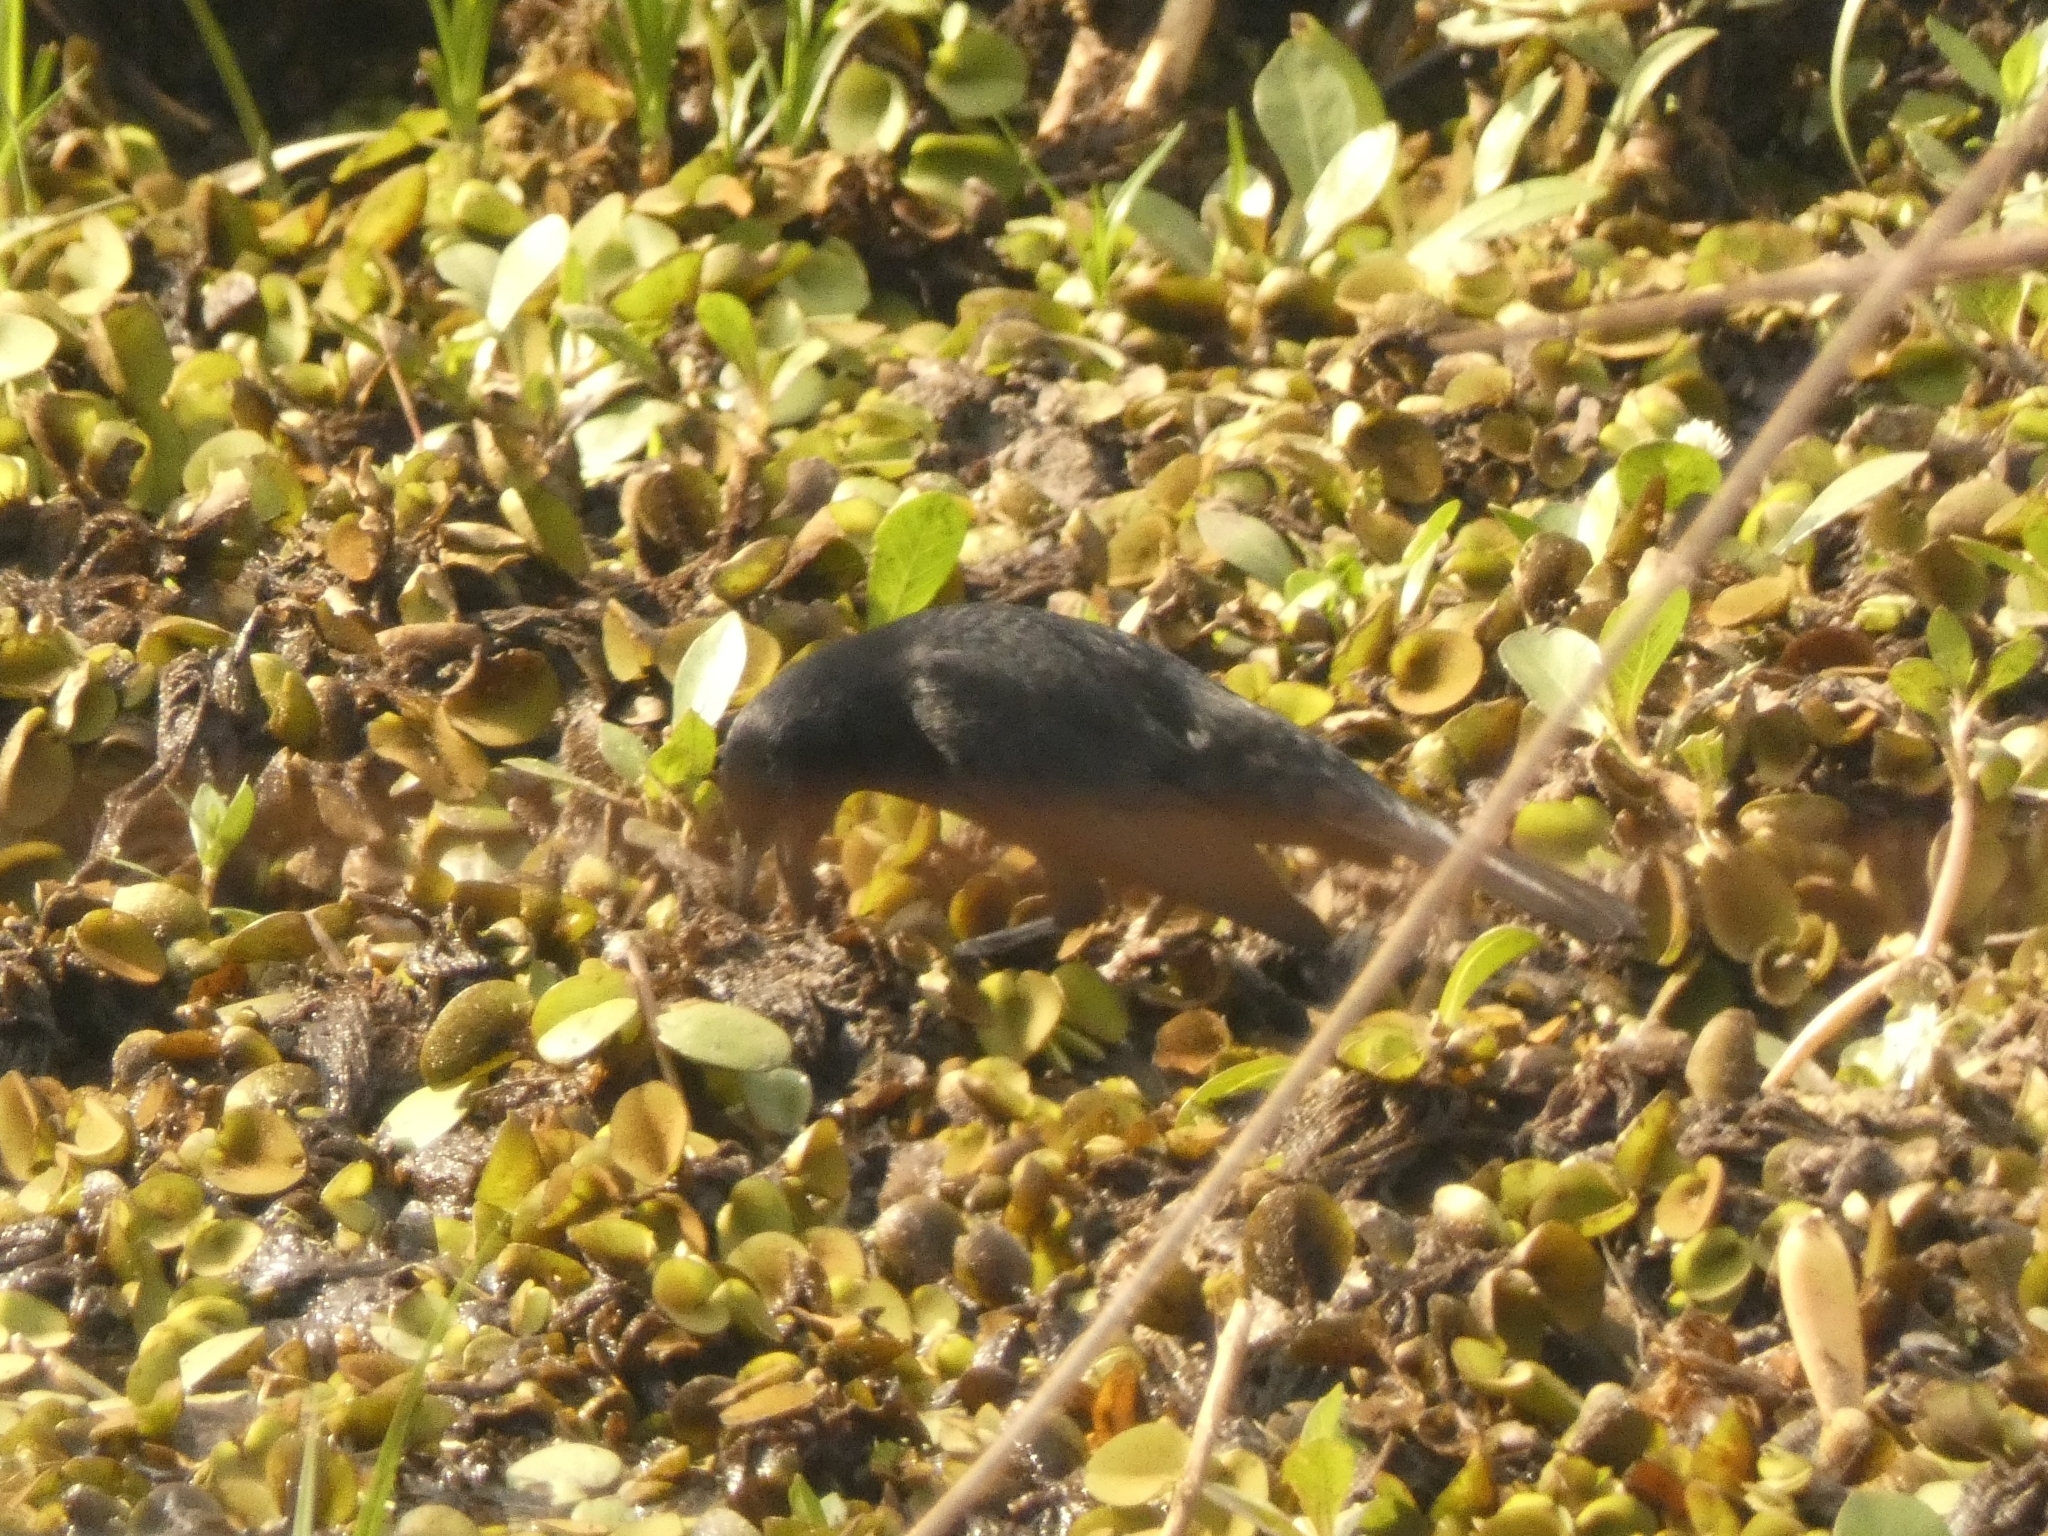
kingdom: Animalia
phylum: Chordata
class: Aves
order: Passeriformes
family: Icteridae
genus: Agelasticus
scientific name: Agelasticus cyanopus
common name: Unicolored blackbird
